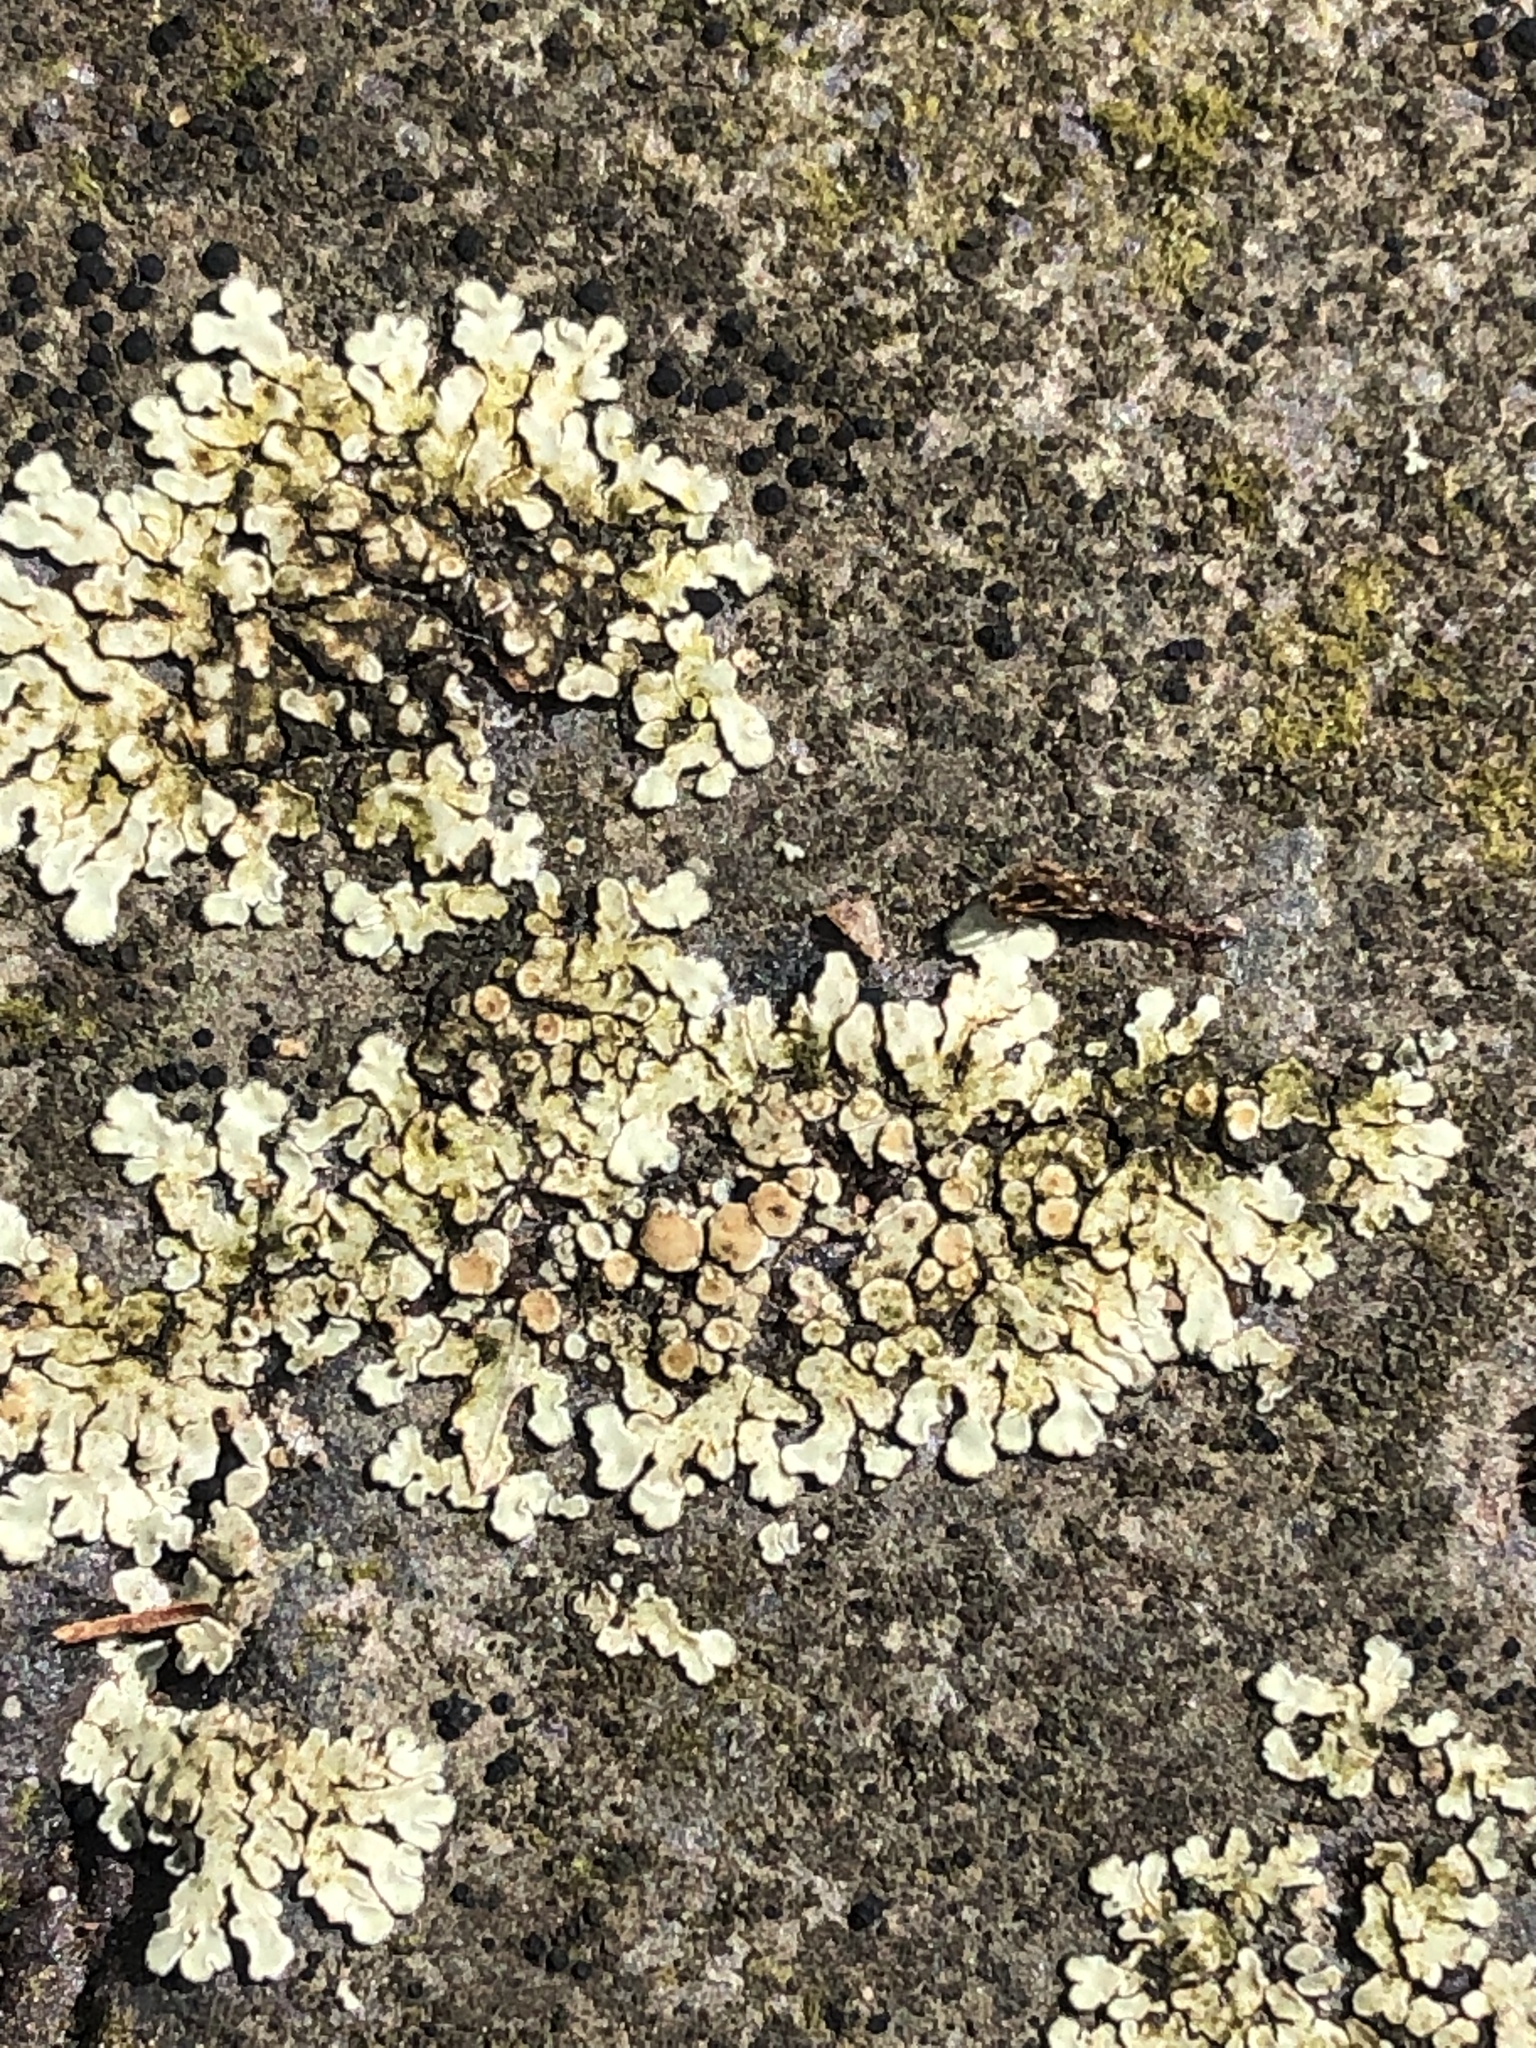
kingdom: Fungi
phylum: Ascomycota
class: Lecanoromycetes
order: Lecanorales
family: Lecanoraceae
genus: Protoparmeliopsis
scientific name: Protoparmeliopsis muralis
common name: Stonewall rim lichen
